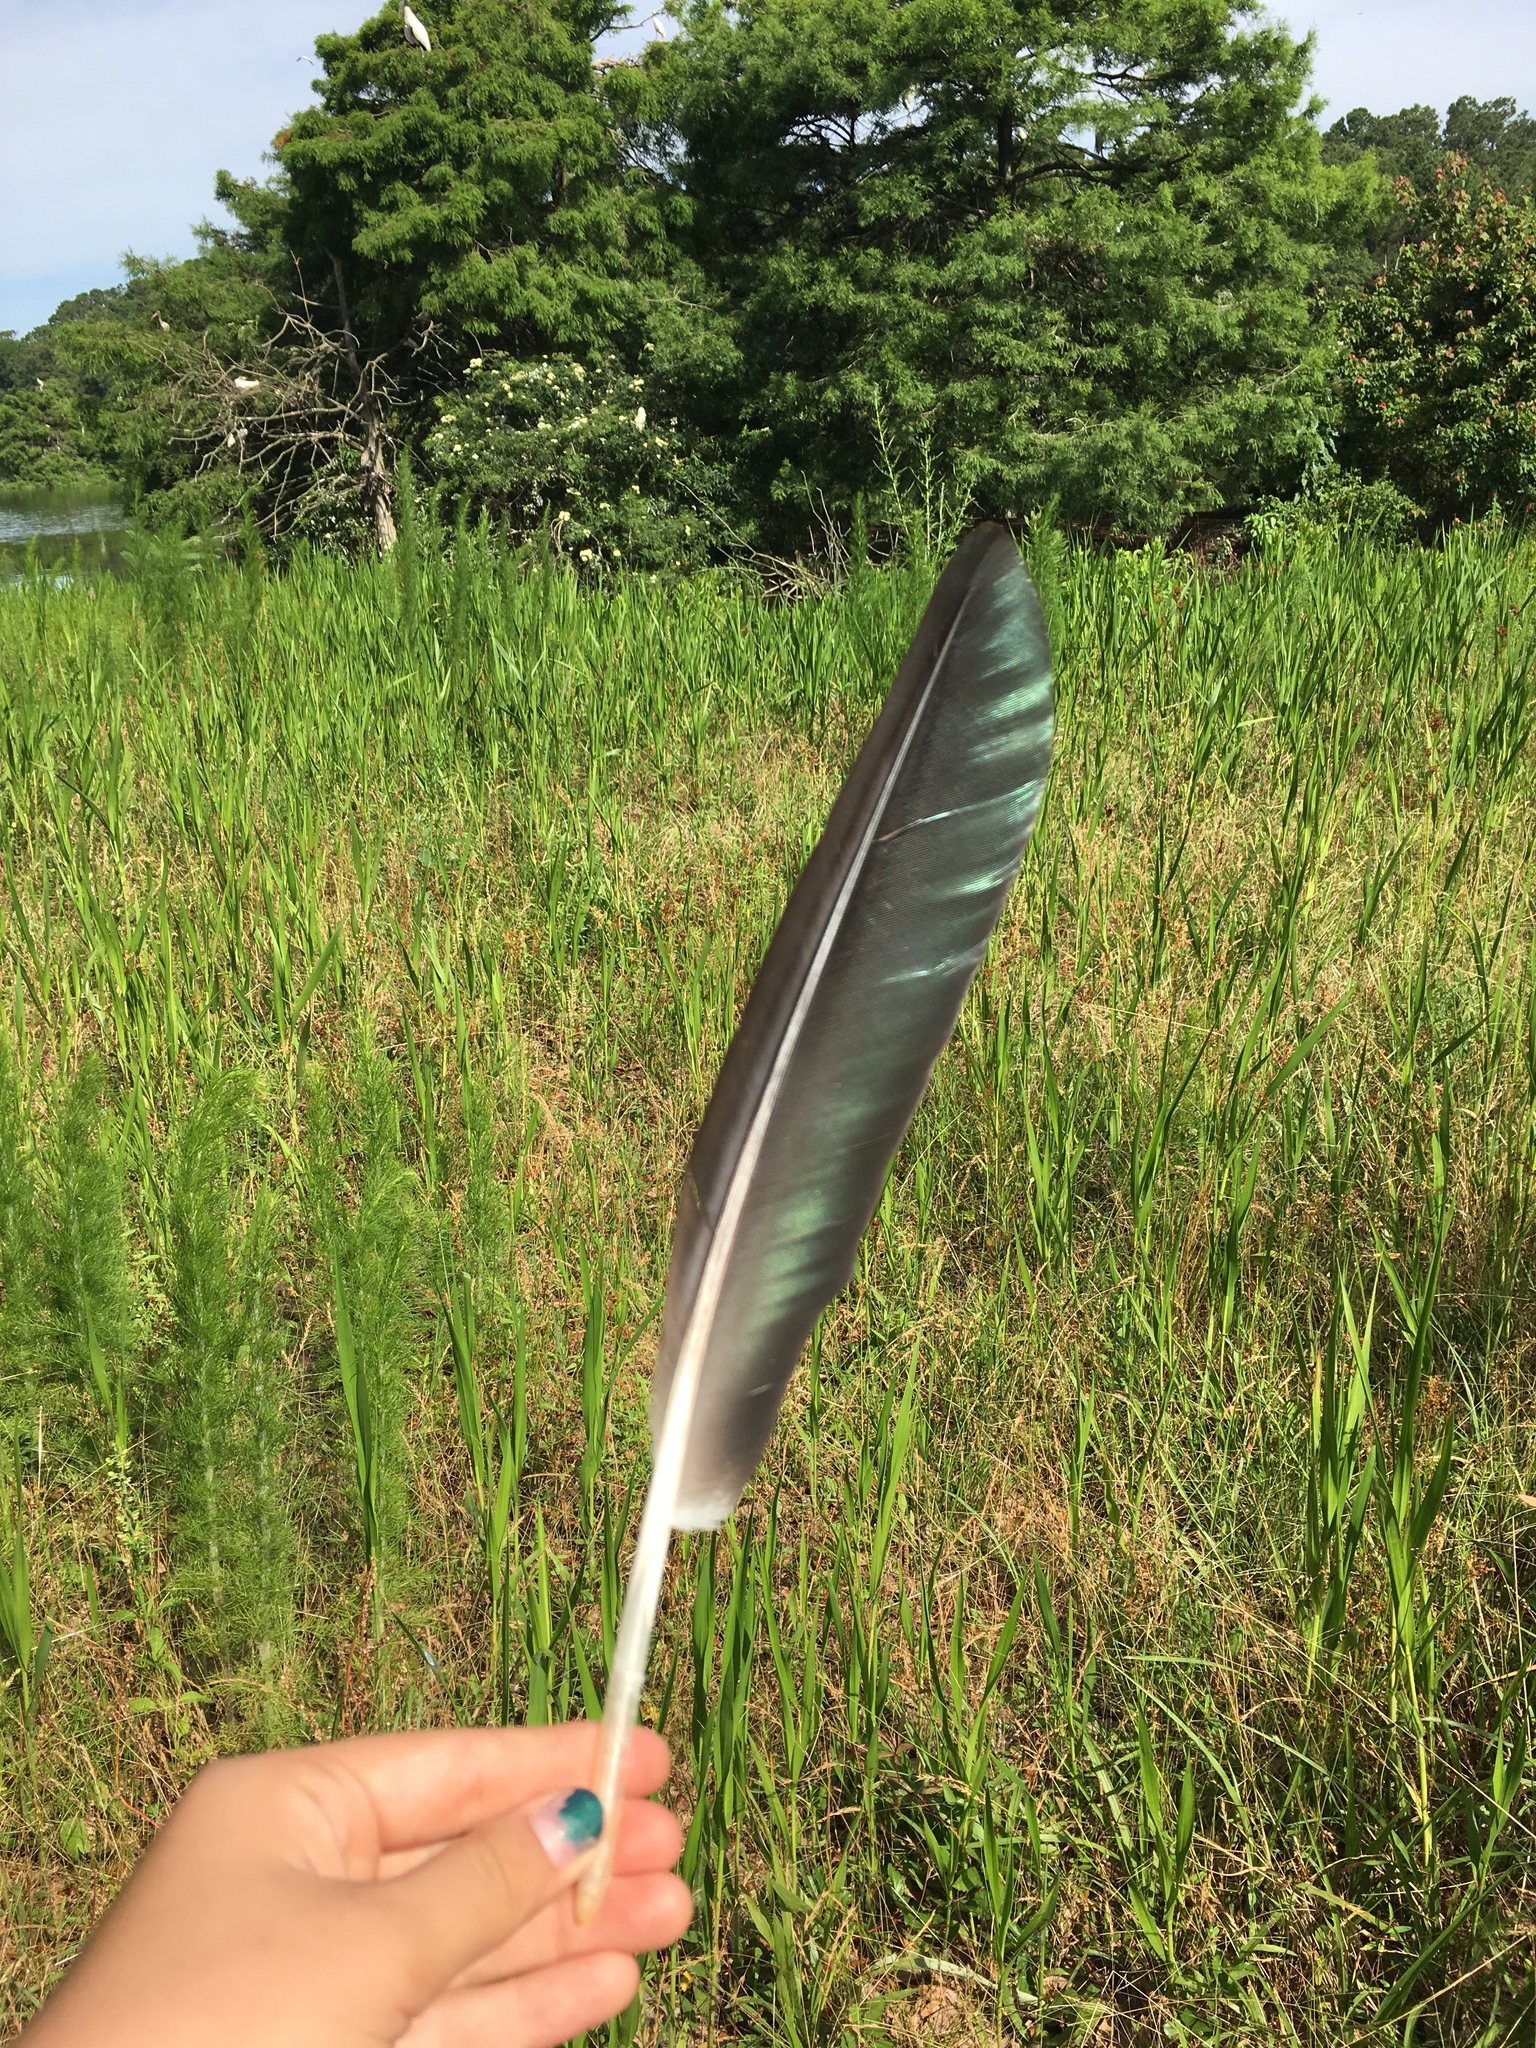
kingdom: Animalia
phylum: Chordata
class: Aves
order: Ciconiiformes
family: Ciconiidae
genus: Mycteria
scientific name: Mycteria americana
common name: Wood stork
